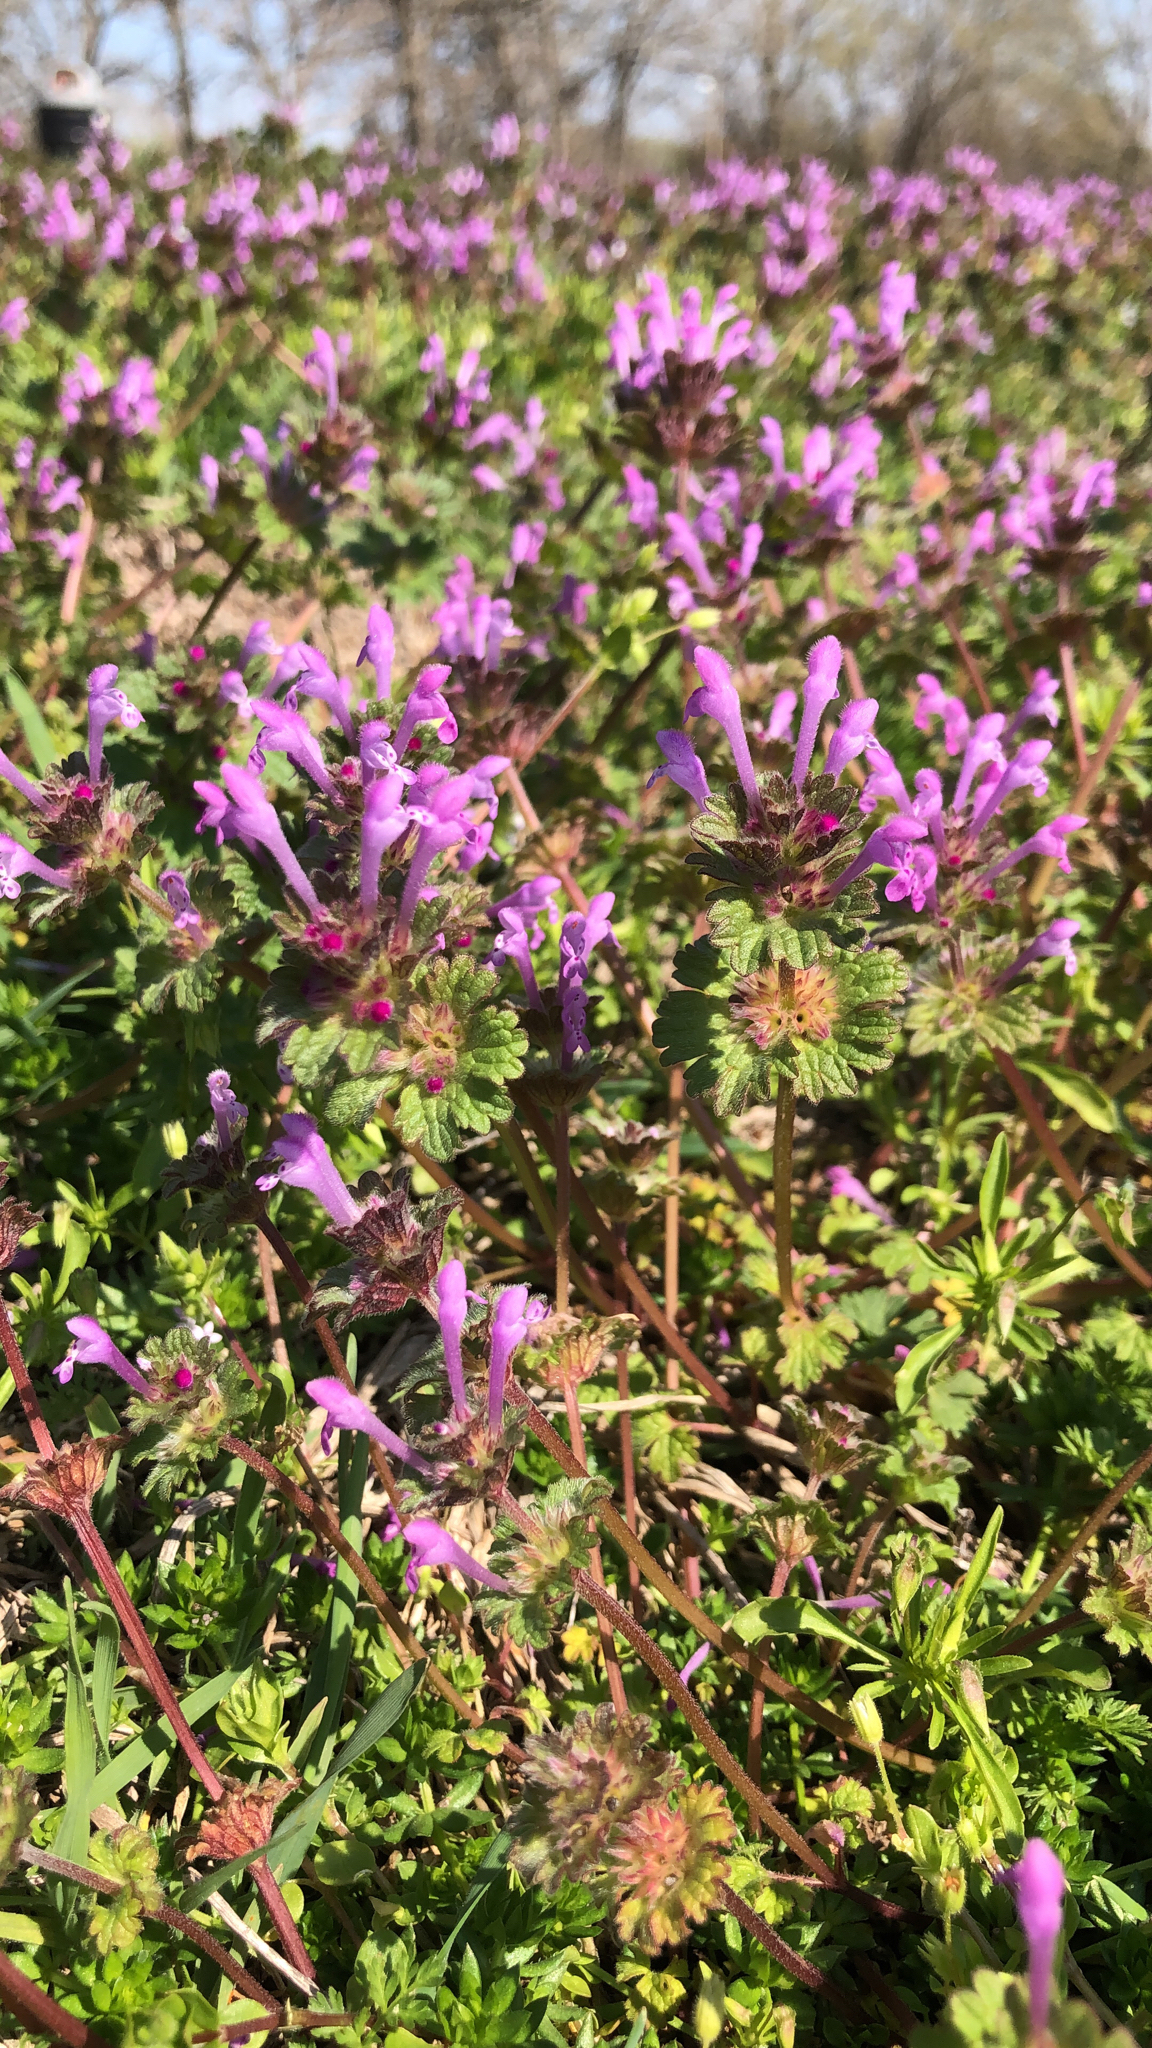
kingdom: Plantae
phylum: Tracheophyta
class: Magnoliopsida
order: Lamiales
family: Lamiaceae
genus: Lamium
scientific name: Lamium amplexicaule
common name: Henbit dead-nettle
